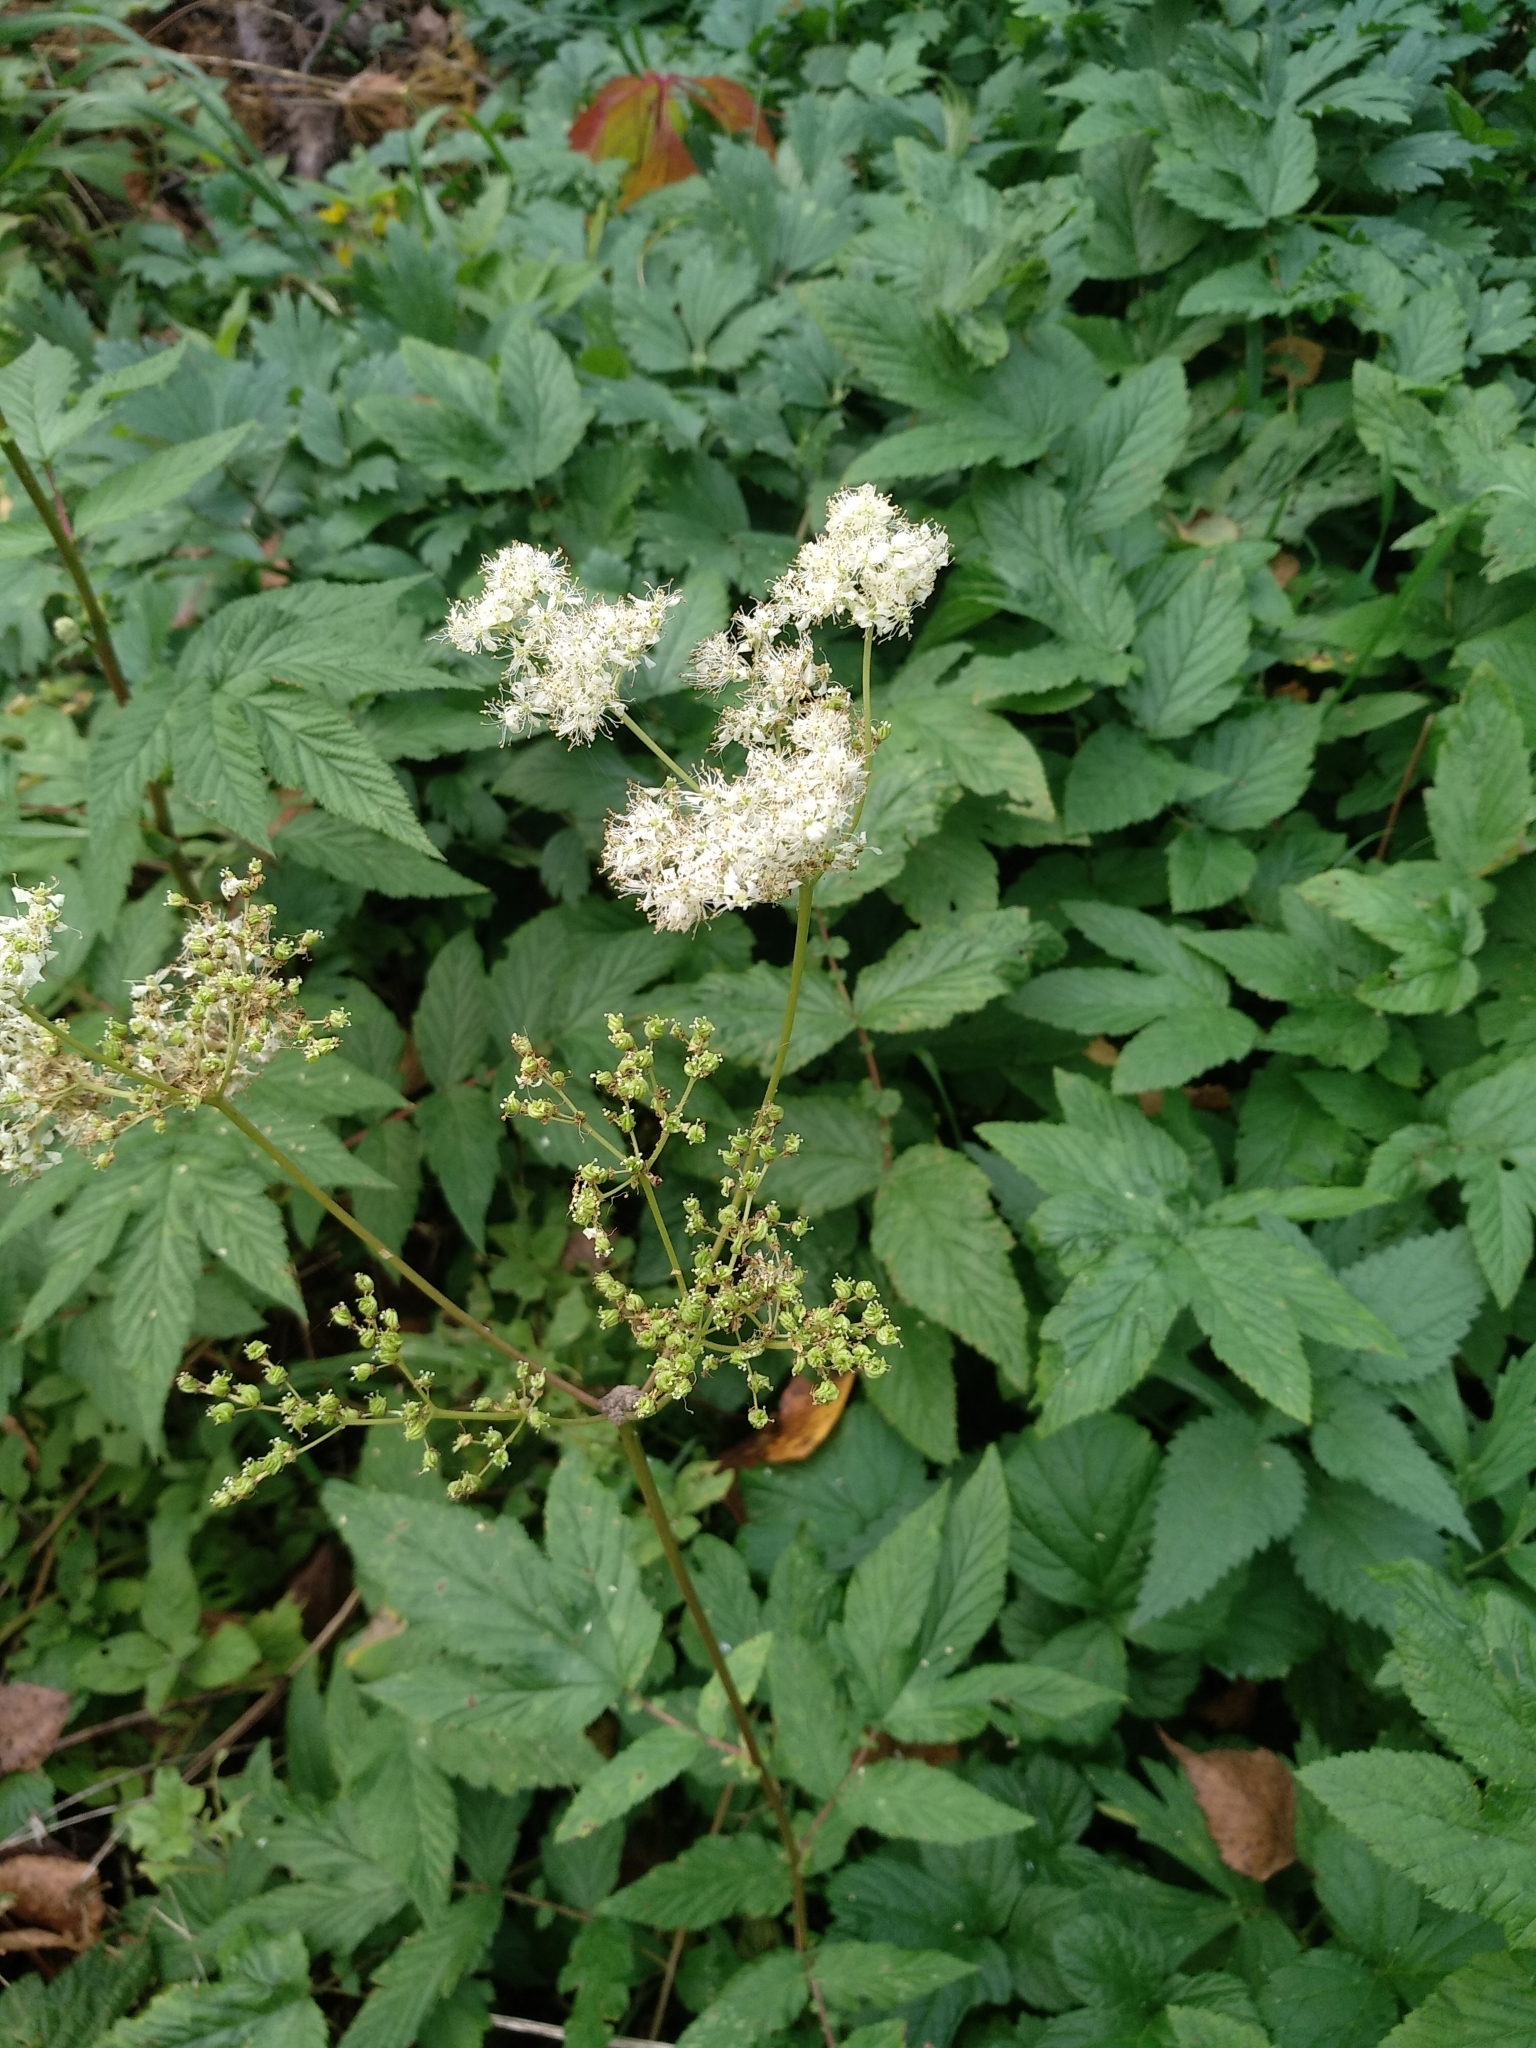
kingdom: Plantae
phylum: Tracheophyta
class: Magnoliopsida
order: Rosales
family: Rosaceae
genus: Filipendula
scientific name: Filipendula ulmaria
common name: Meadowsweet
